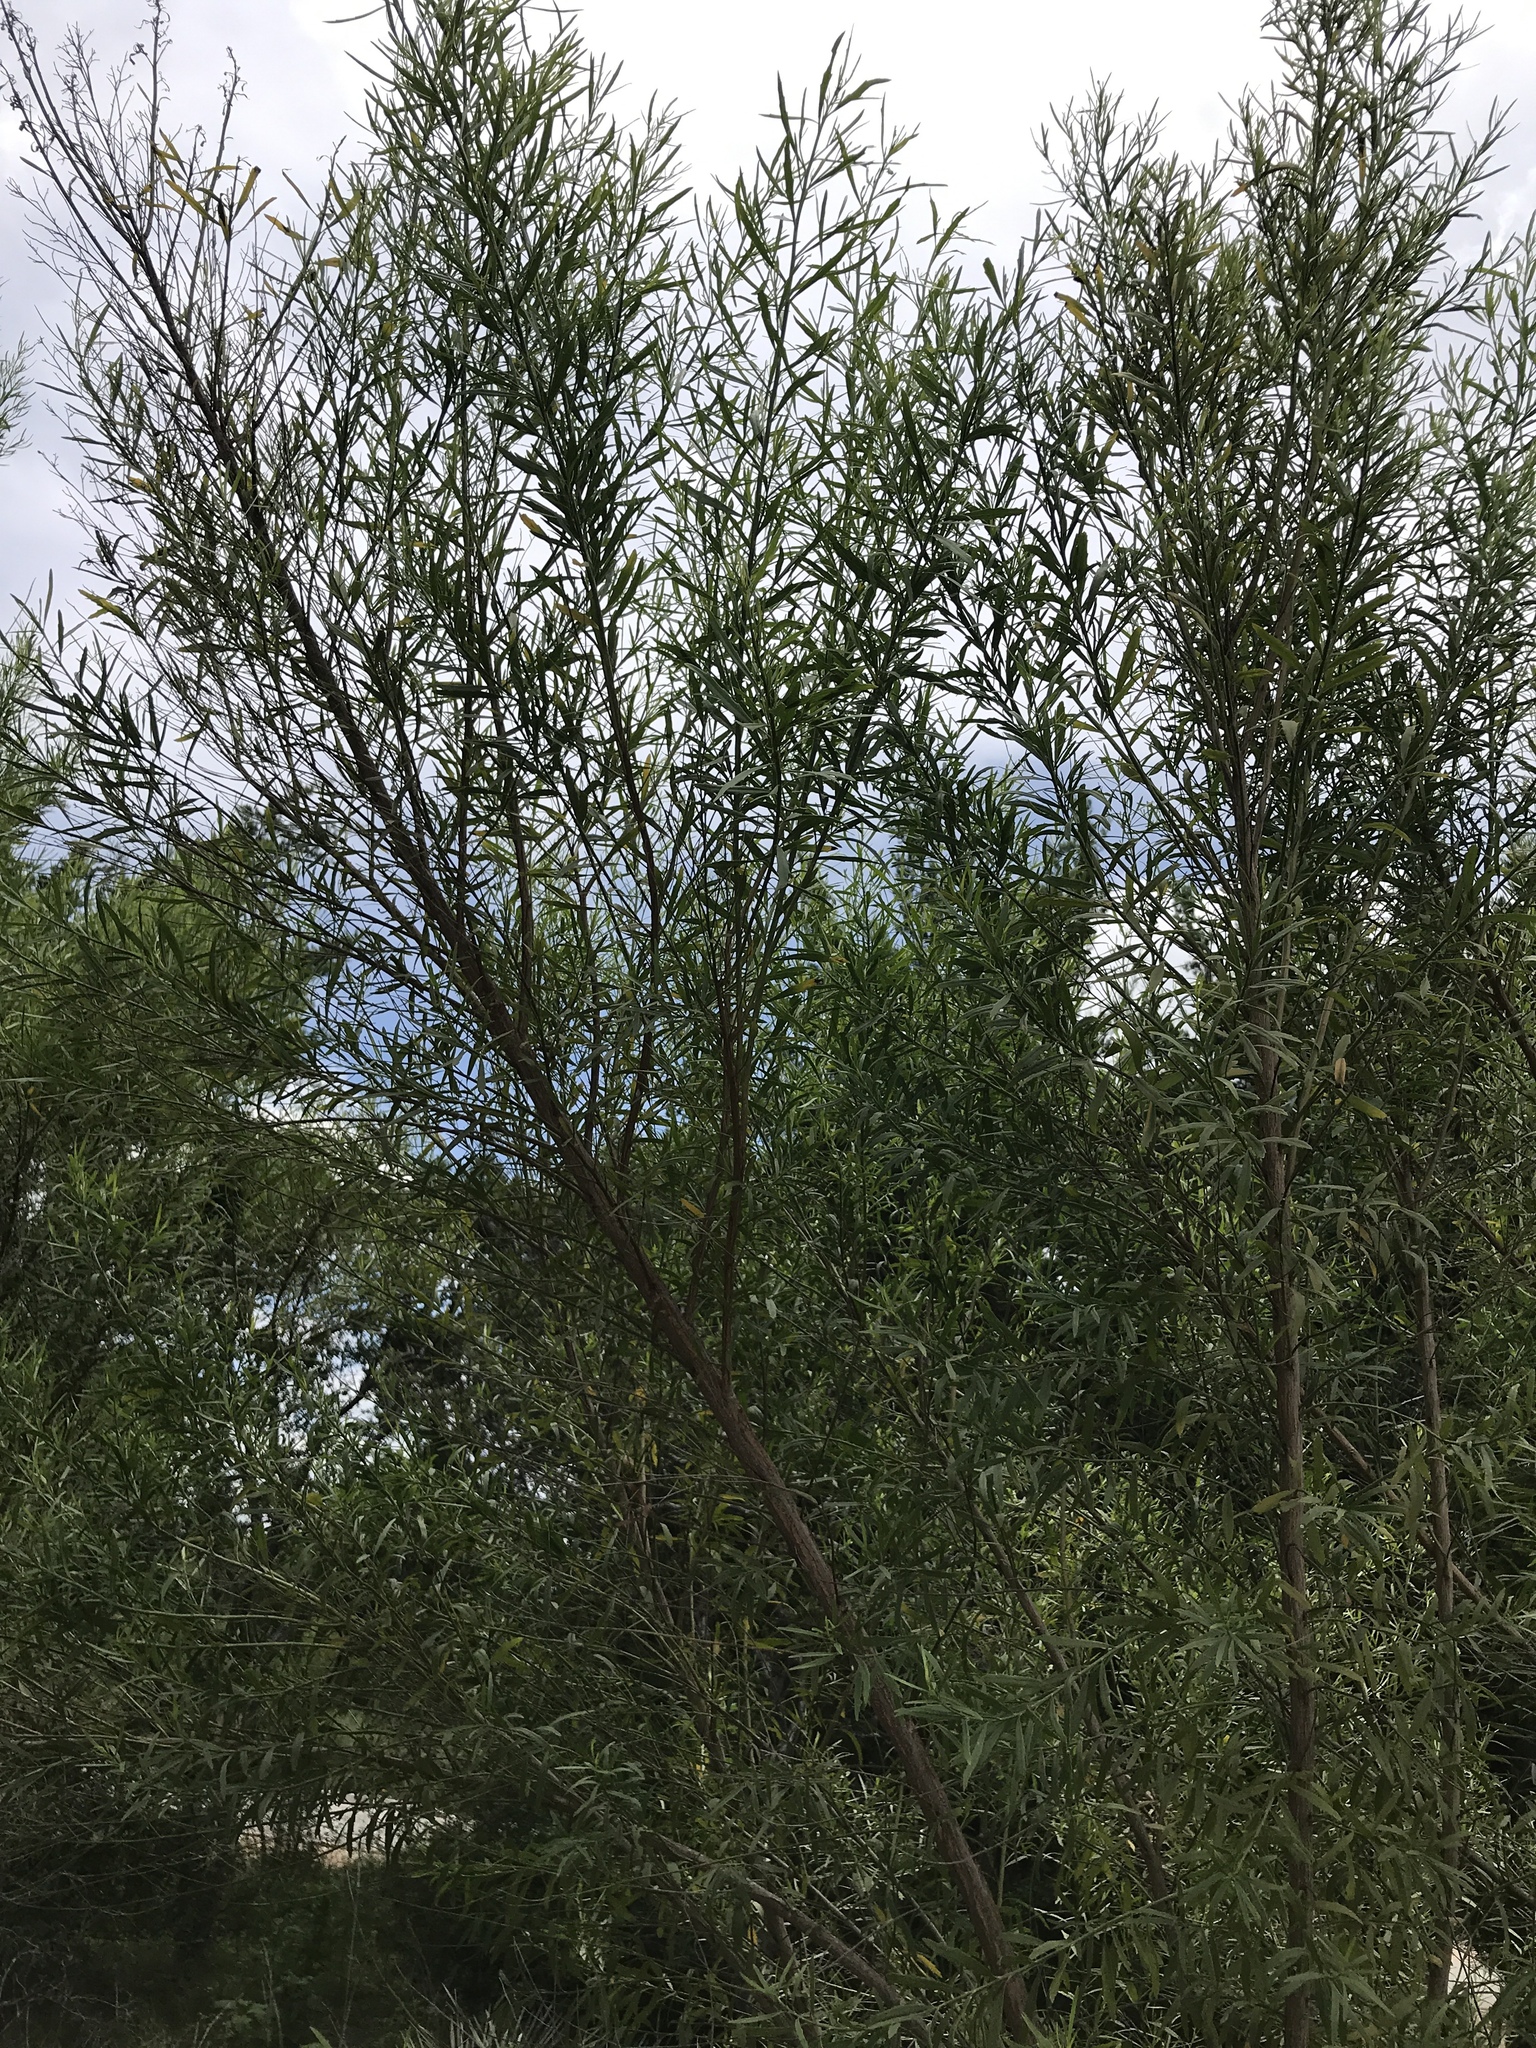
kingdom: Plantae
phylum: Tracheophyta
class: Magnoliopsida
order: Asterales
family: Asteraceae
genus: Baccharis
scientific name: Baccharis neglecta
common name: Roosevelt-weed
